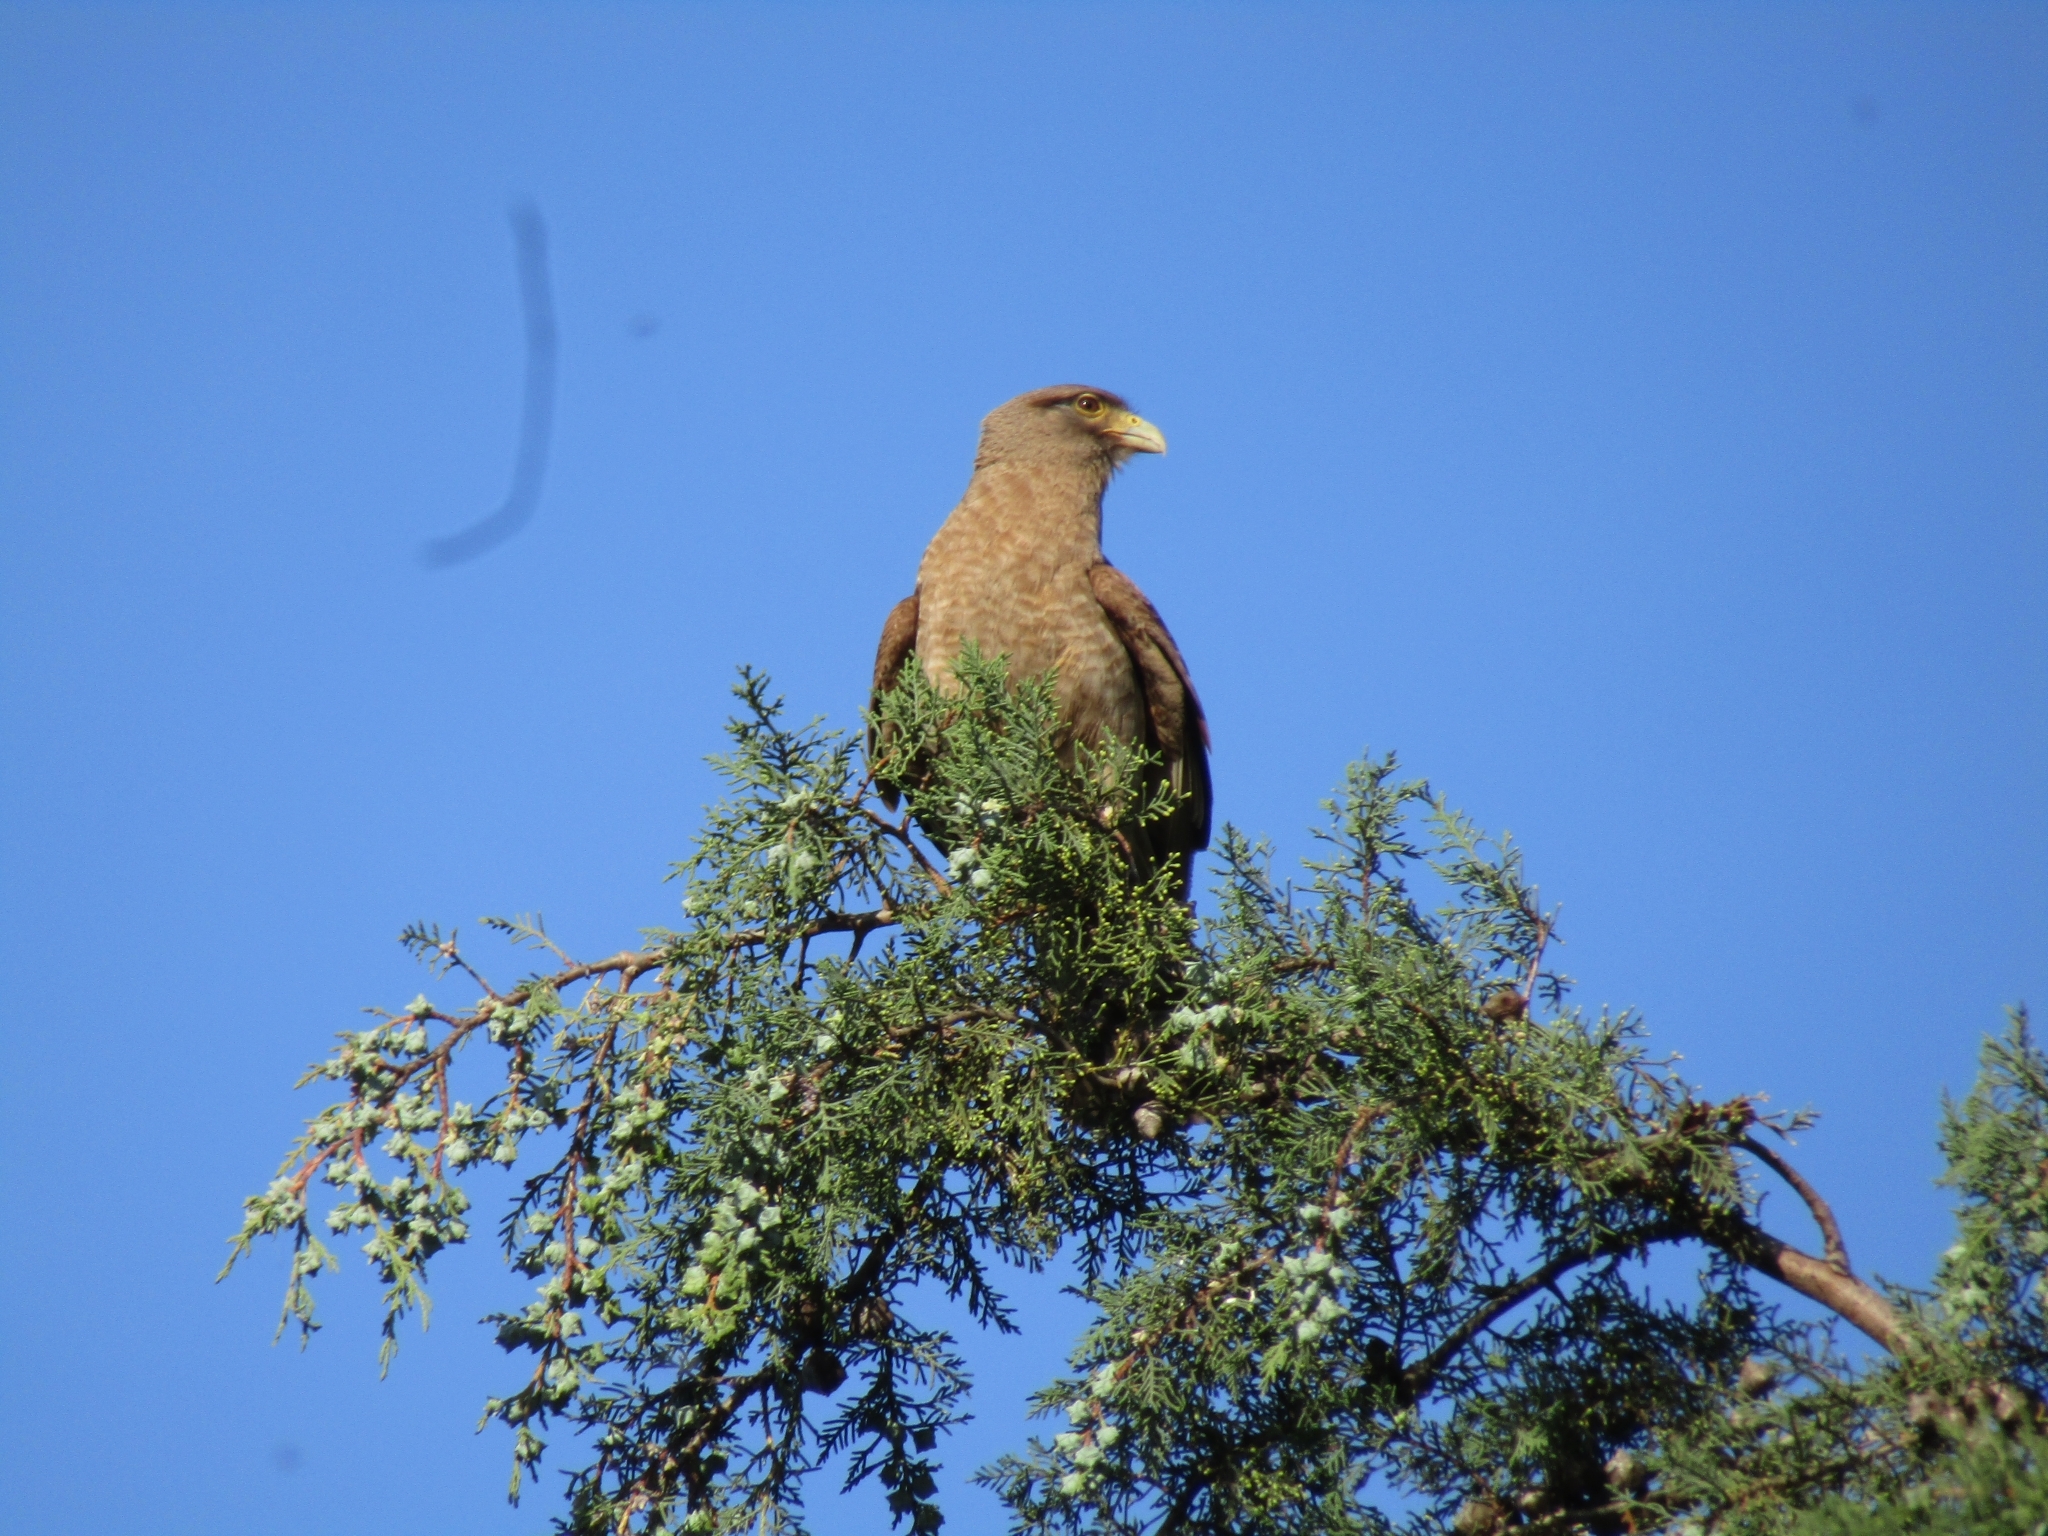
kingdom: Animalia
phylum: Chordata
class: Aves
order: Falconiformes
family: Falconidae
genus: Daptrius
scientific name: Daptrius
